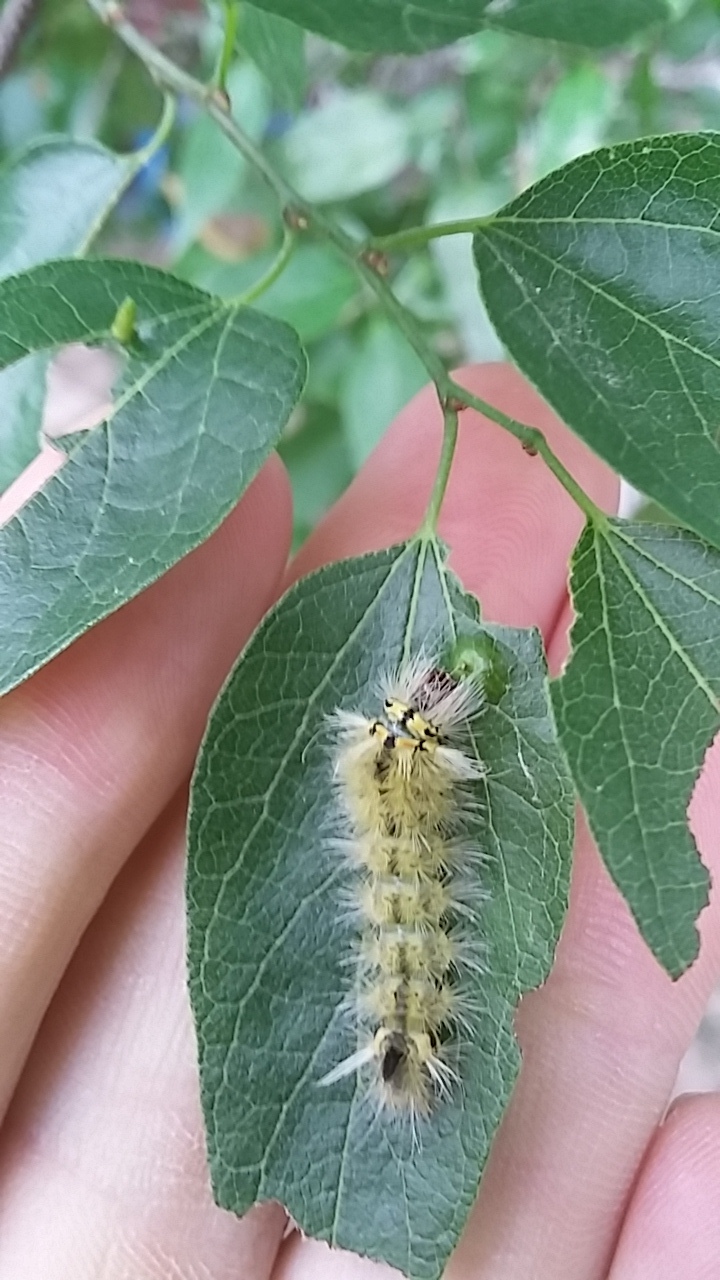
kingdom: Animalia
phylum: Arthropoda
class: Insecta
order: Lepidoptera
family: Erebidae
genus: Halysidota
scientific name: Halysidota schausi
